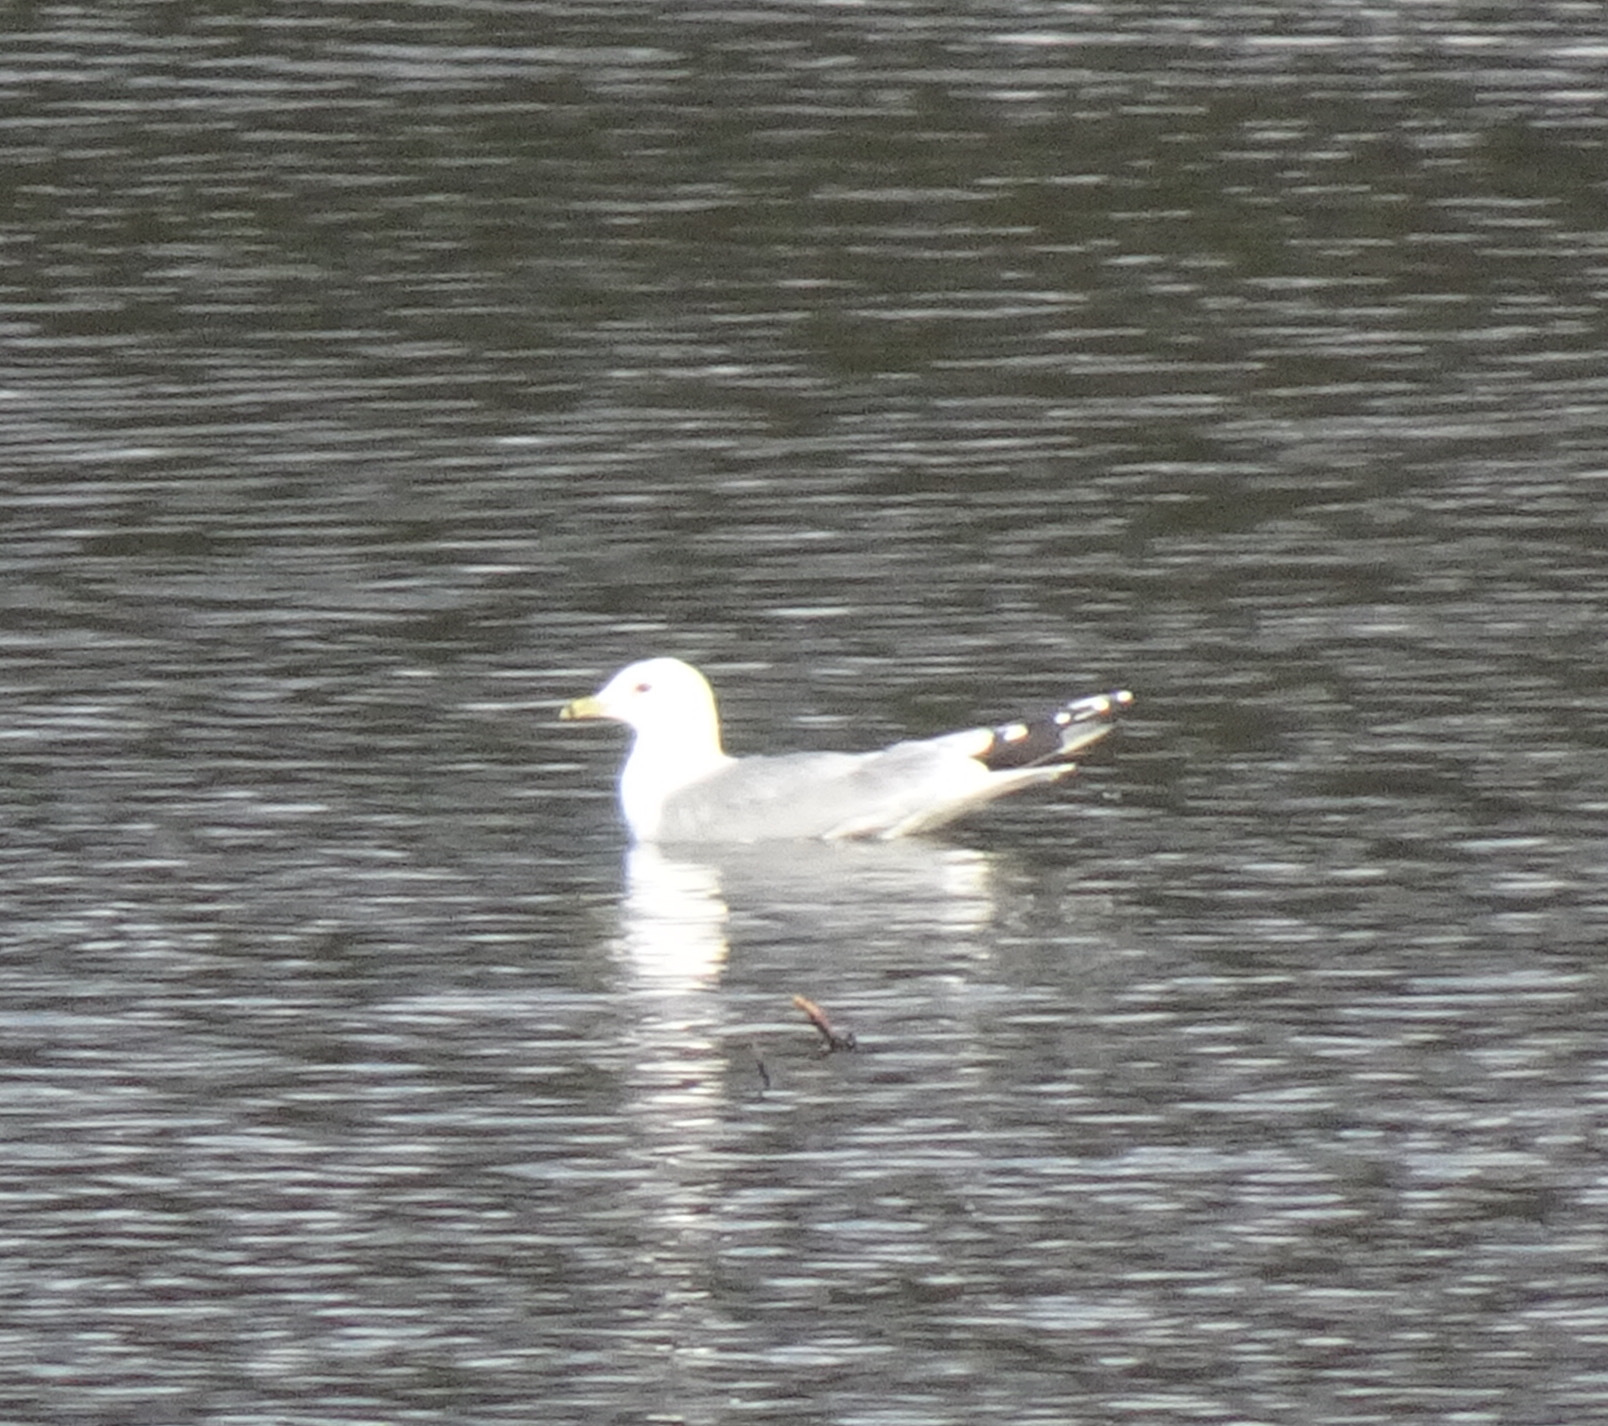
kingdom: Animalia
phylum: Chordata
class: Aves
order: Charadriiformes
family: Laridae
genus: Larus
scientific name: Larus canus
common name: Mew gull
